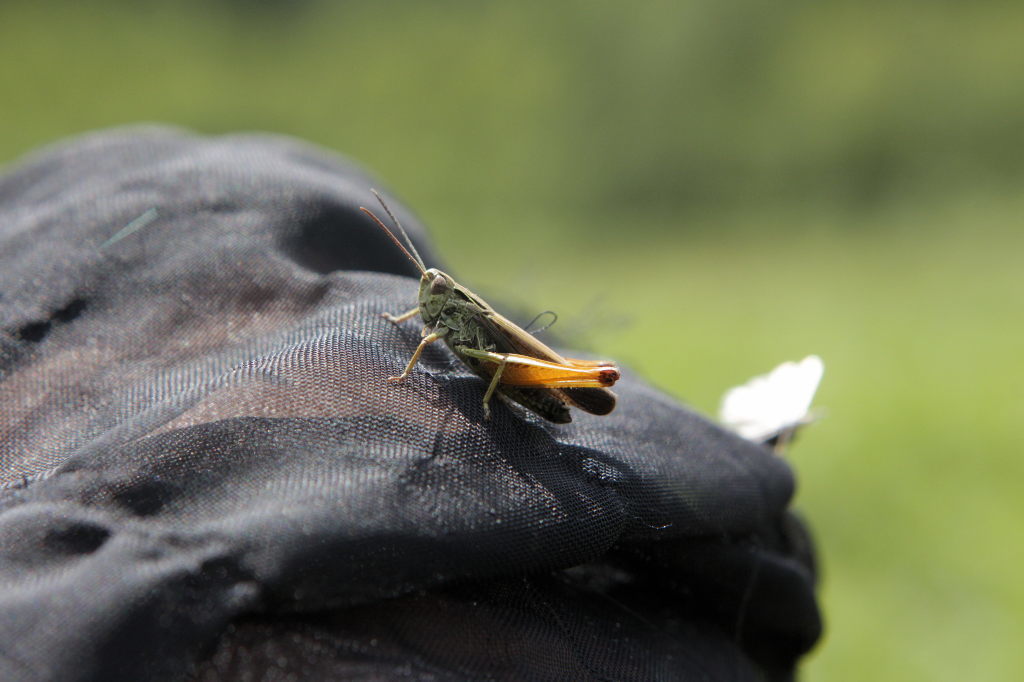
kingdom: Animalia
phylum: Arthropoda
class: Insecta
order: Orthoptera
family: Acrididae
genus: Omocestus
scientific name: Omocestus viridulus
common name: Common green grasshopper
